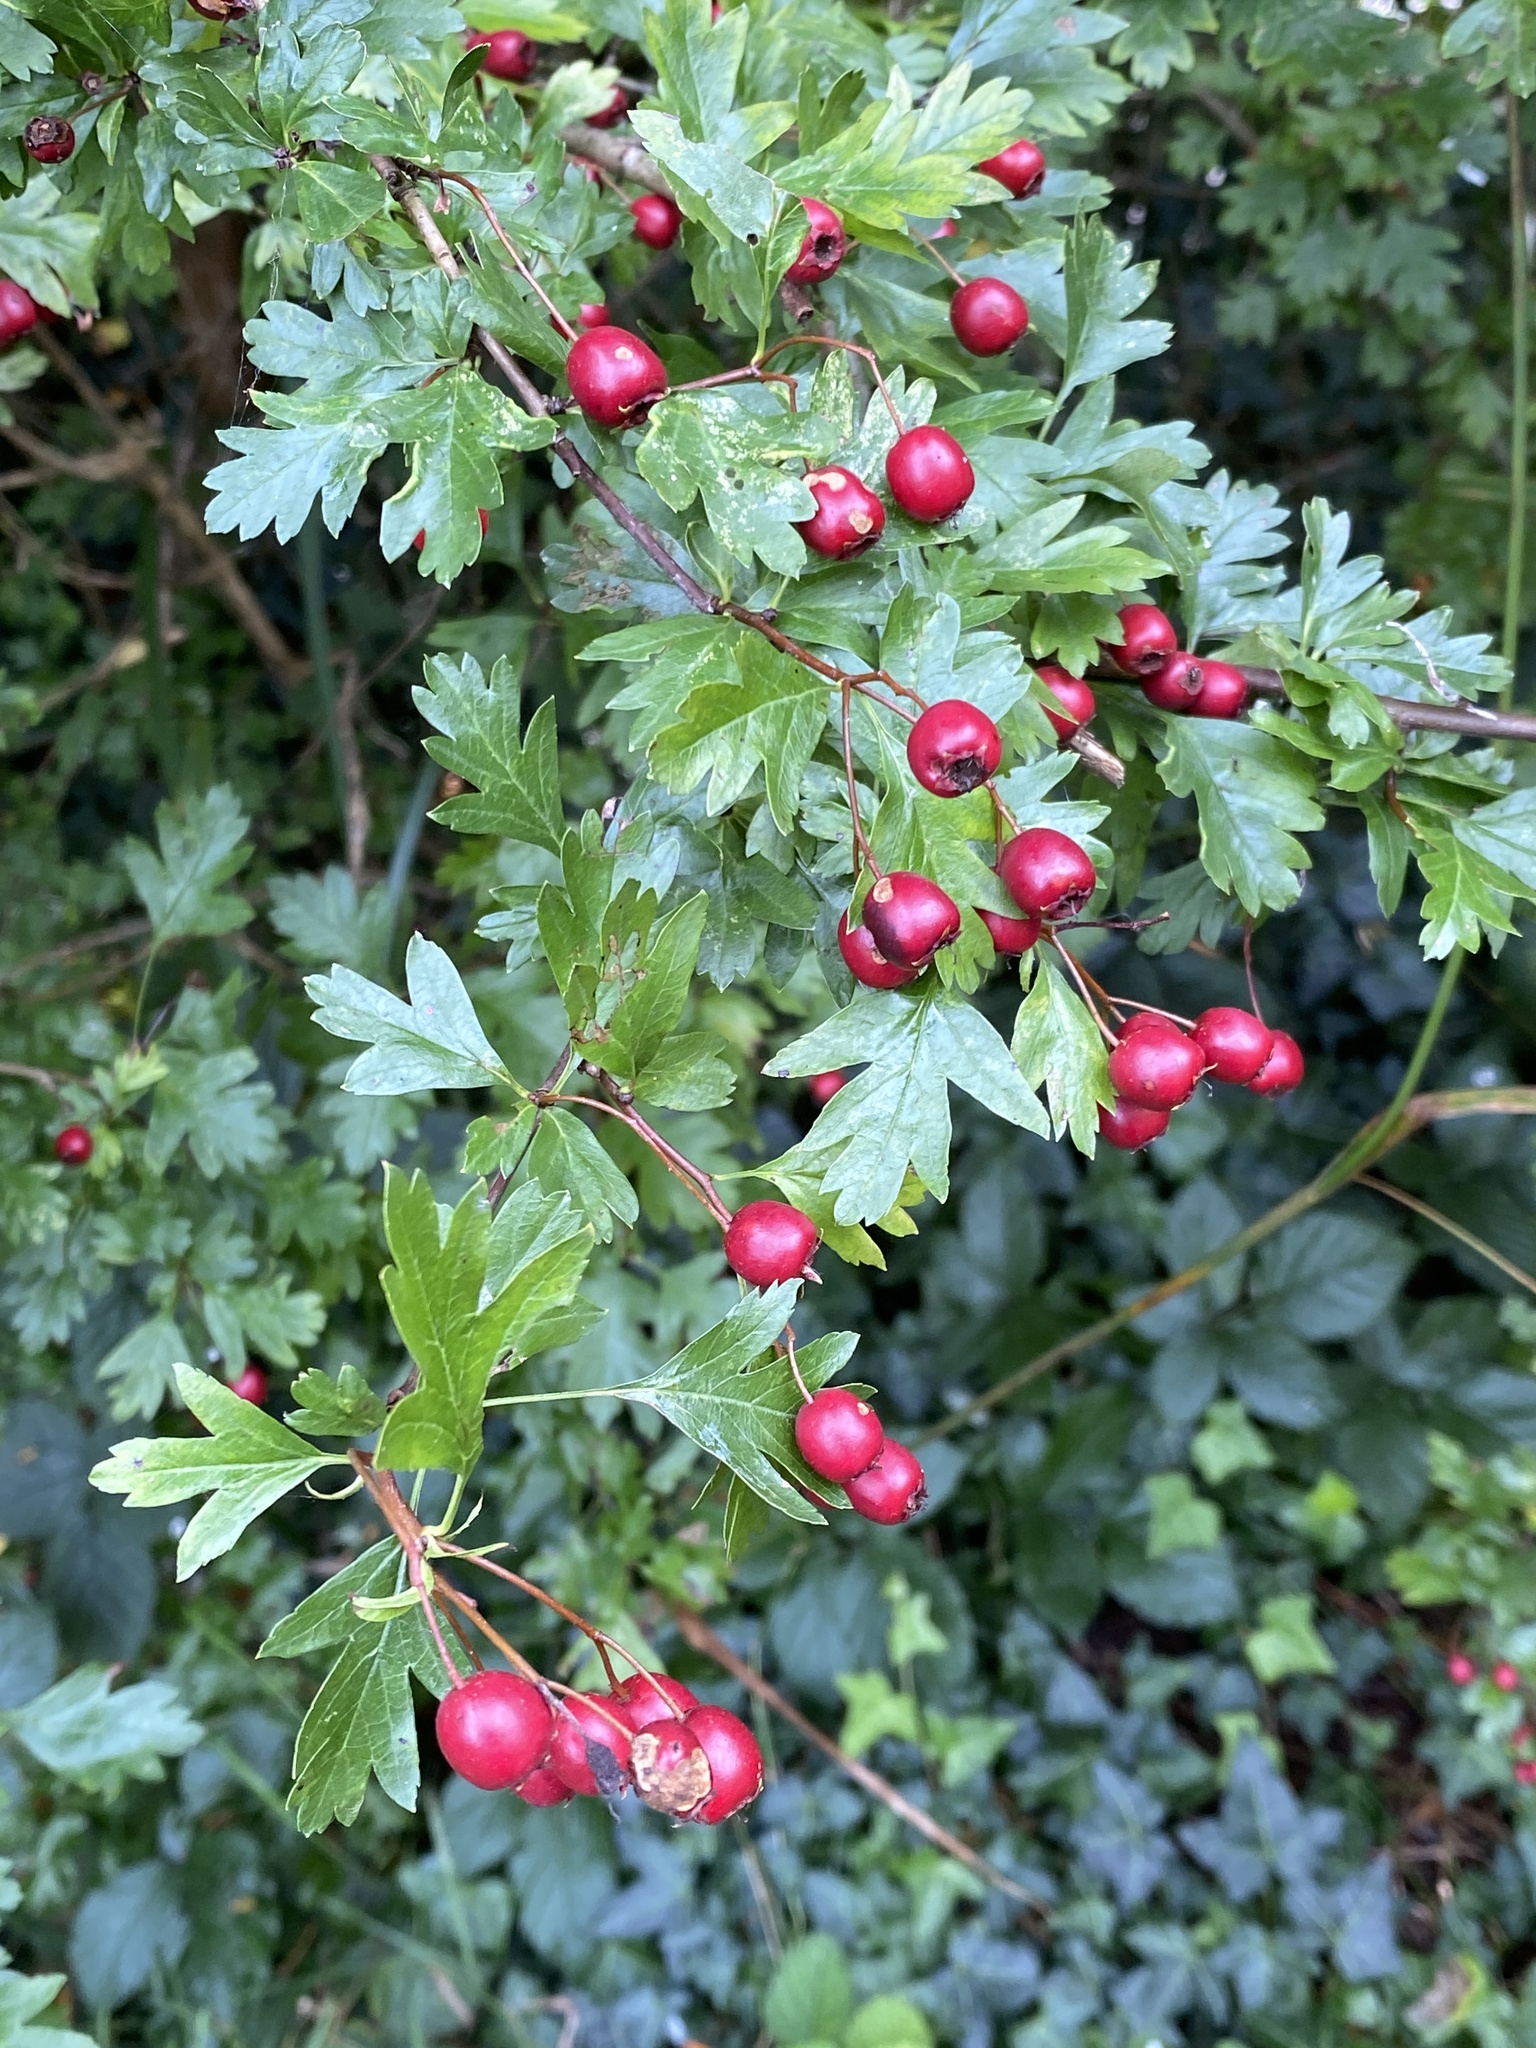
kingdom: Plantae
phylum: Tracheophyta
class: Magnoliopsida
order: Rosales
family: Rosaceae
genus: Crataegus
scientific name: Crataegus monogyna
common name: Hawthorn
